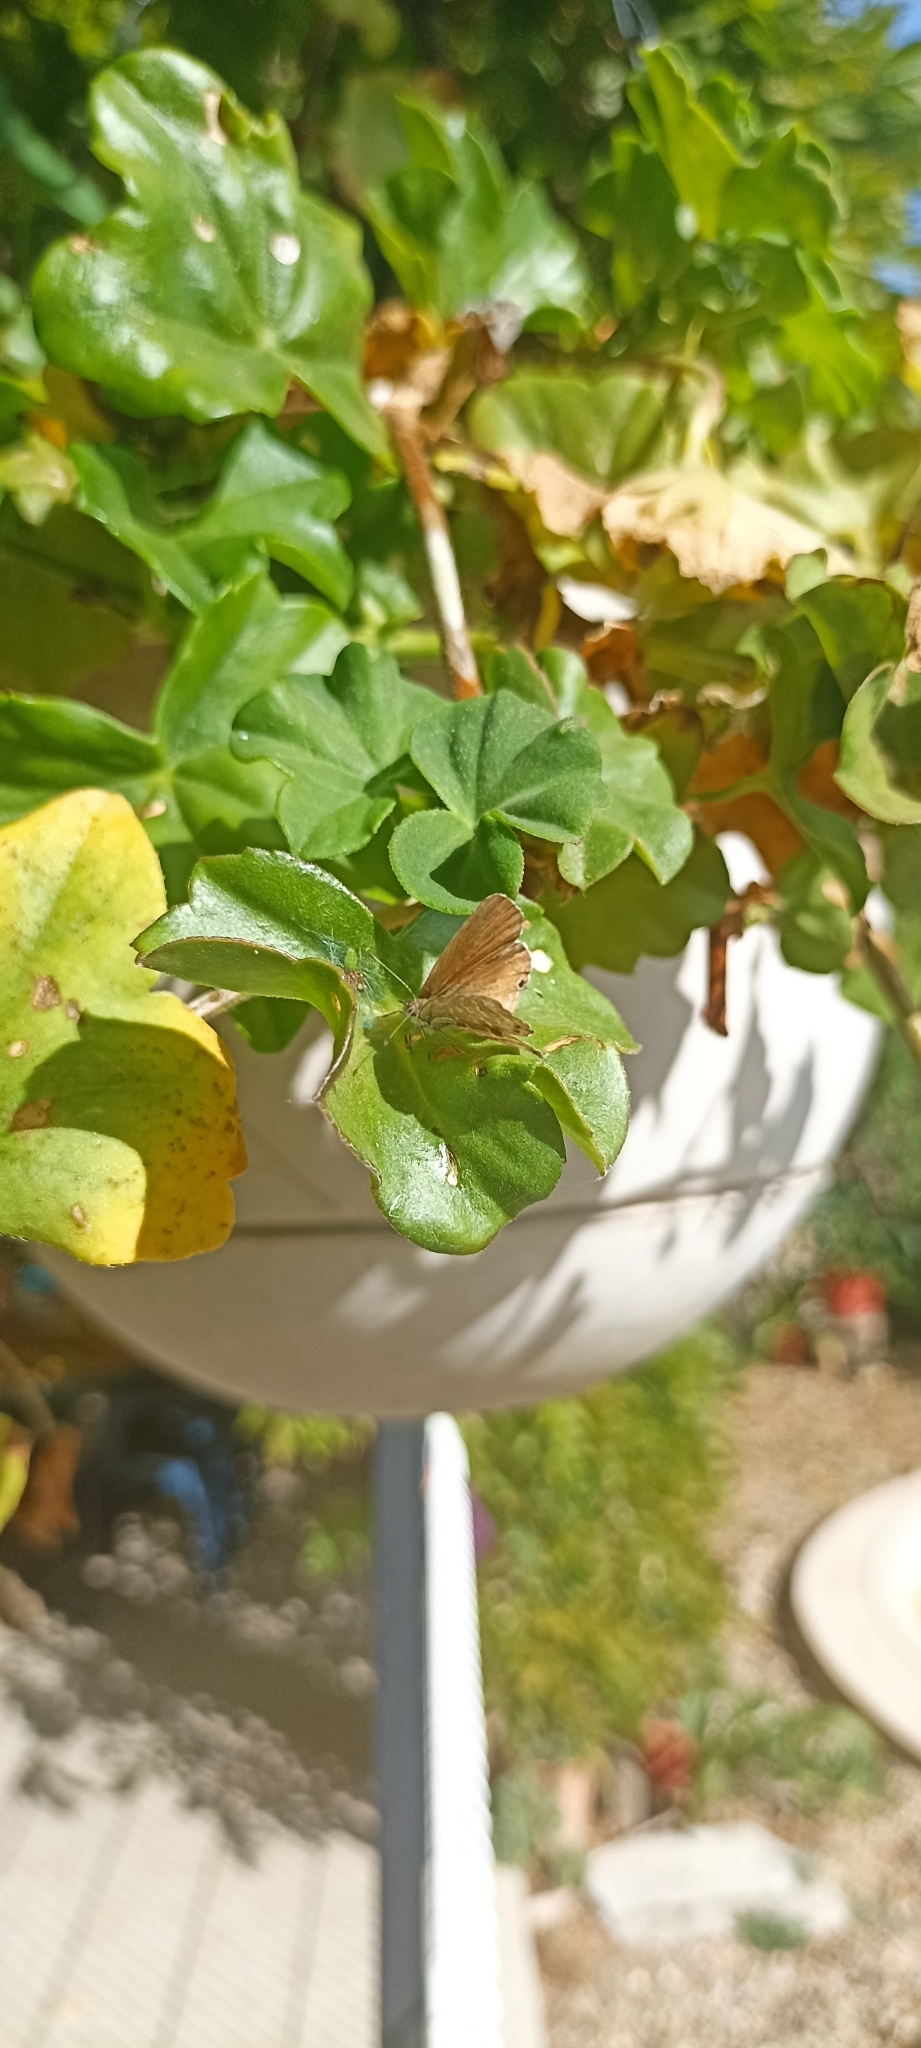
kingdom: Animalia
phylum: Arthropoda
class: Insecta
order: Lepidoptera
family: Lycaenidae
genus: Cacyreus
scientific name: Cacyreus marshalli
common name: Geranium bronze
